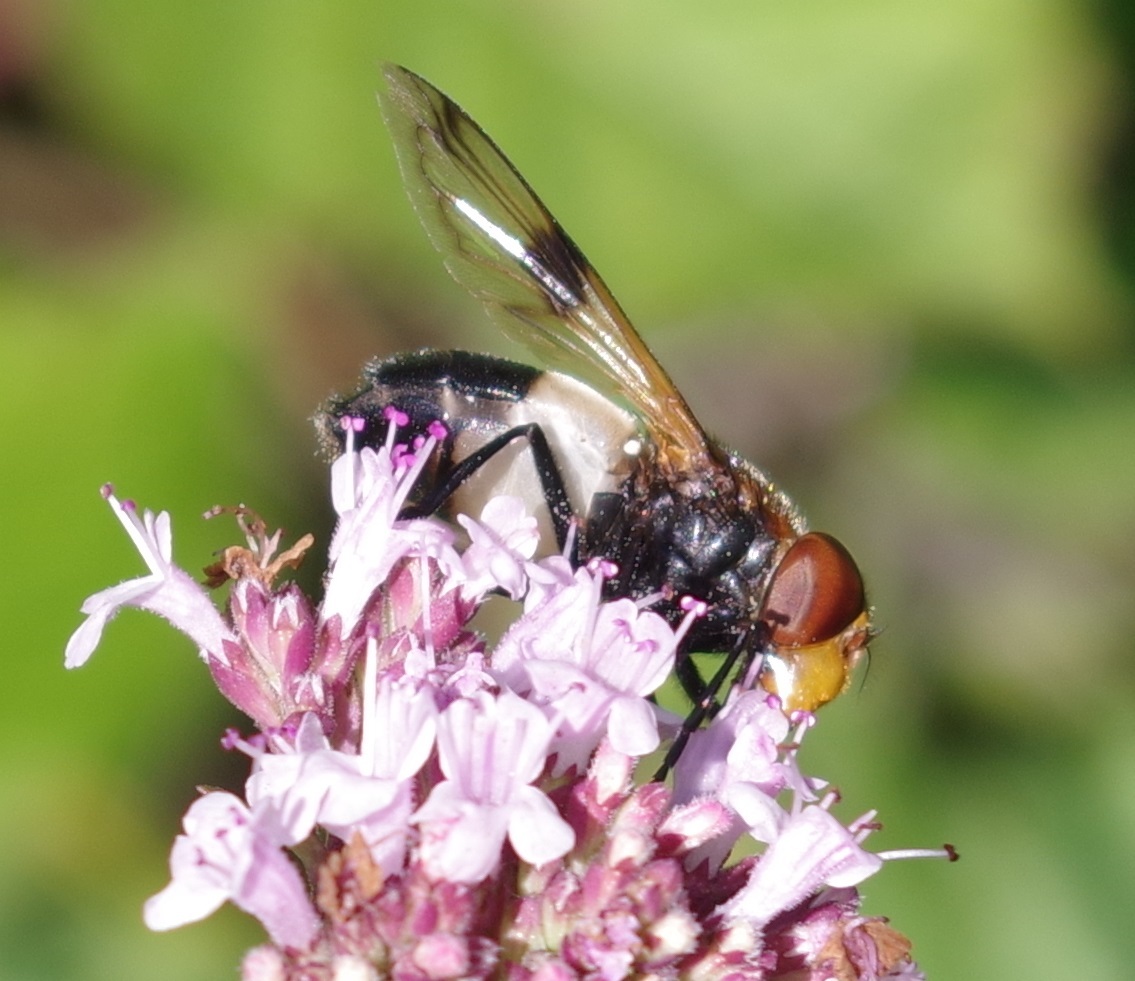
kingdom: Animalia
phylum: Arthropoda
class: Insecta
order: Diptera
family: Syrphidae
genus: Volucella
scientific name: Volucella pellucens
